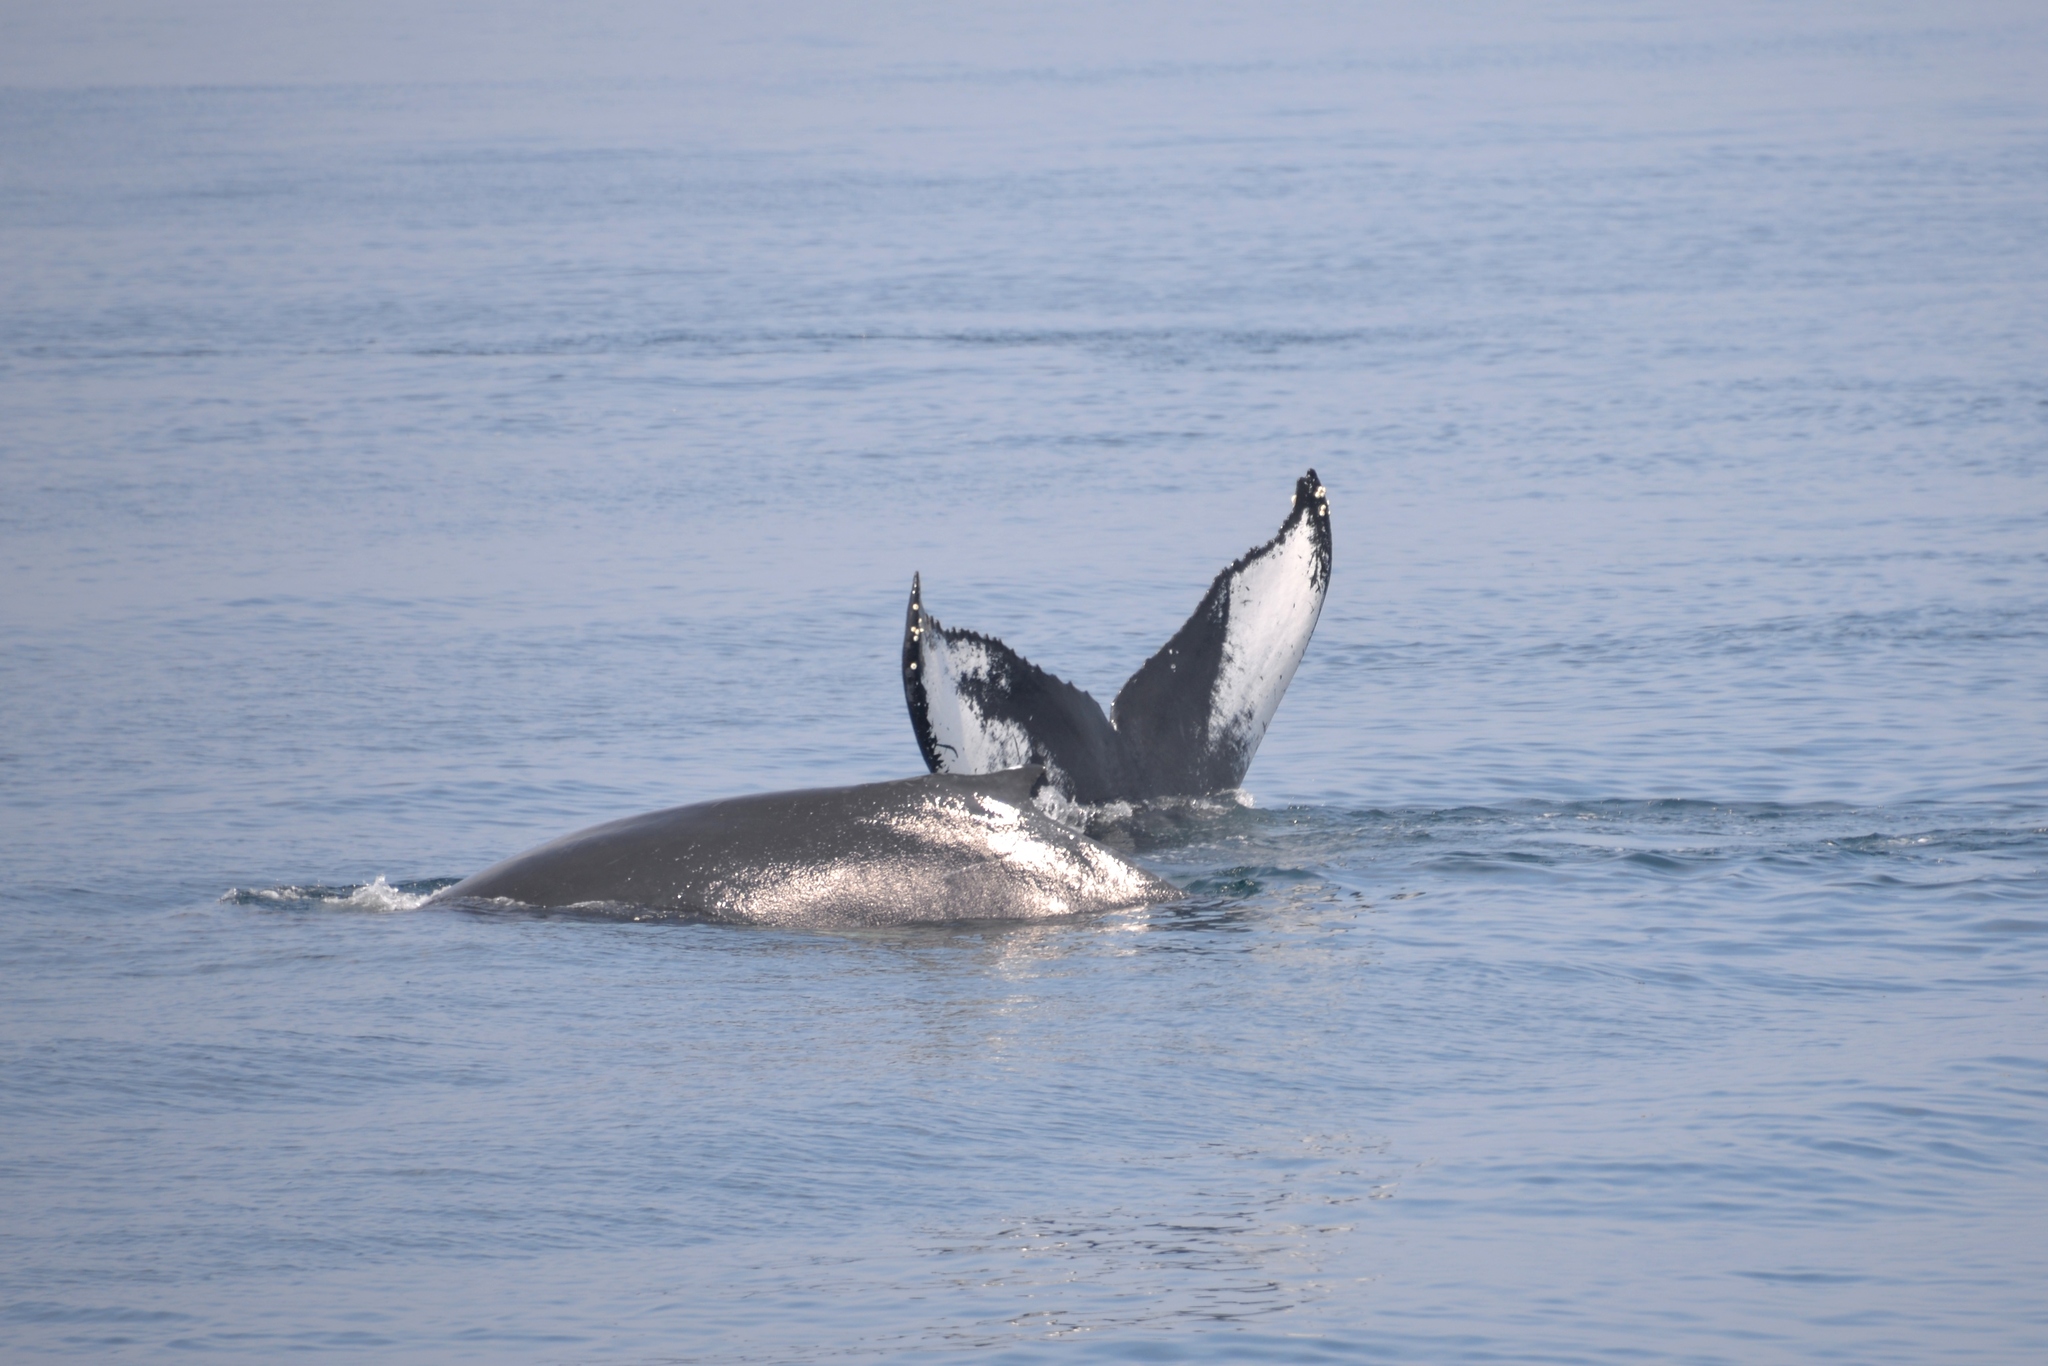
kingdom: Animalia
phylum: Chordata
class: Mammalia
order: Cetacea
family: Balaenopteridae
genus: Megaptera
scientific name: Megaptera novaeangliae
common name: Humpback whale
